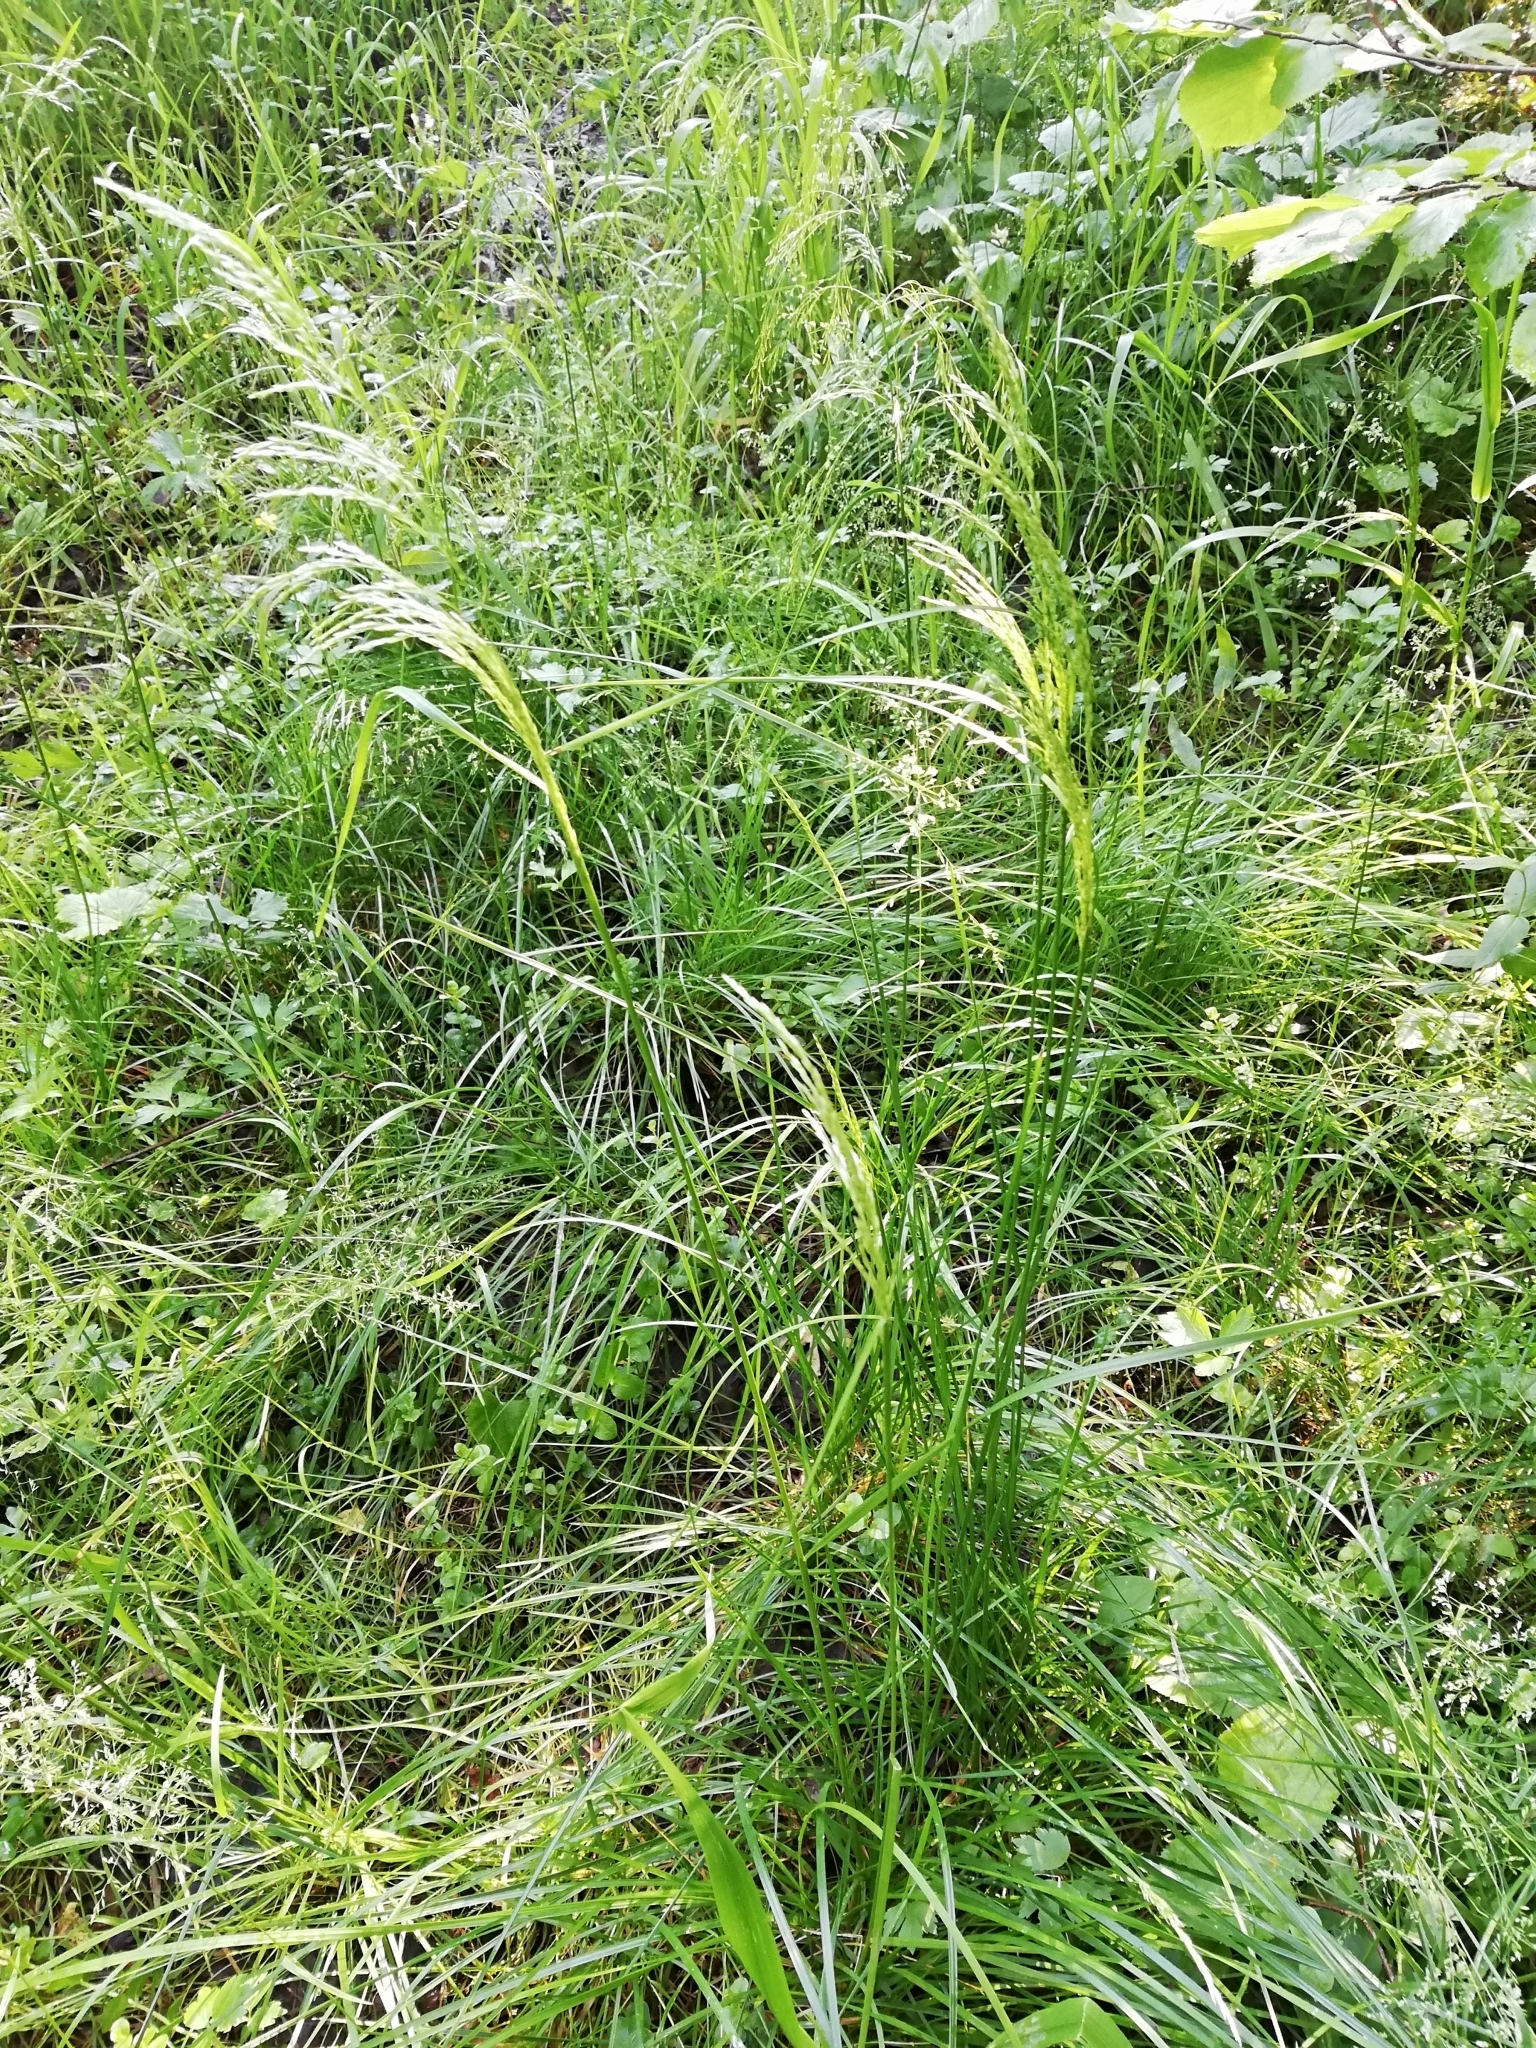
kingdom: Plantae
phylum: Tracheophyta
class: Liliopsida
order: Poales
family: Poaceae
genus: Deschampsia
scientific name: Deschampsia cespitosa
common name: Tufted hair-grass
